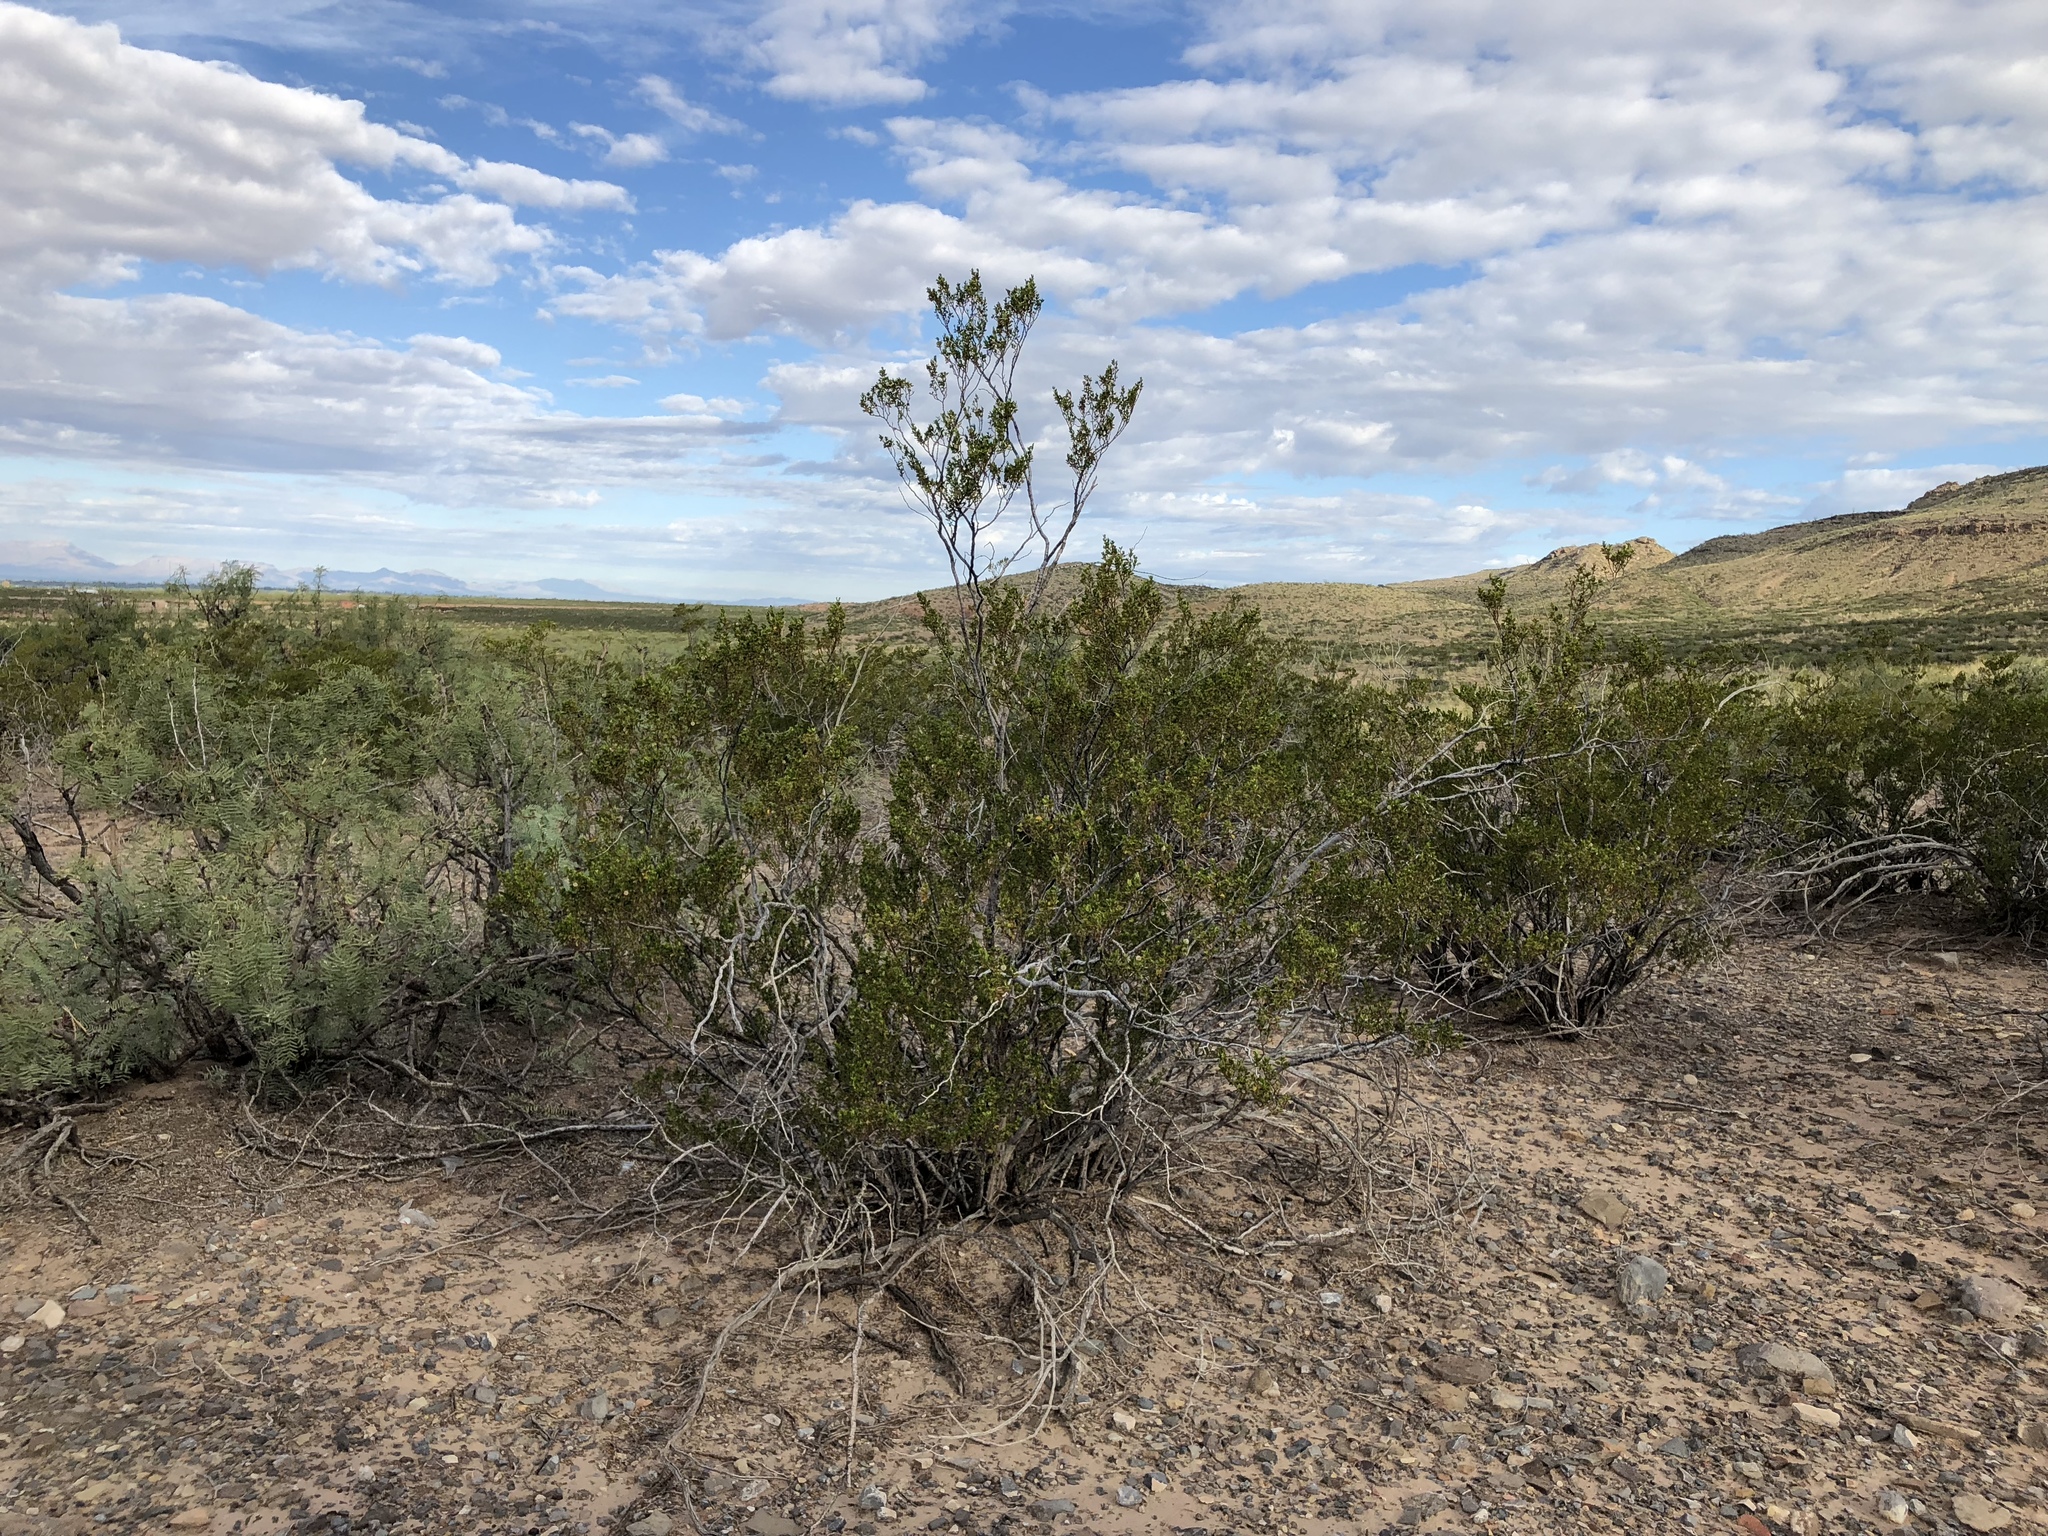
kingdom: Plantae
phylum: Tracheophyta
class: Magnoliopsida
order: Zygophyllales
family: Zygophyllaceae
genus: Larrea
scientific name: Larrea tridentata
